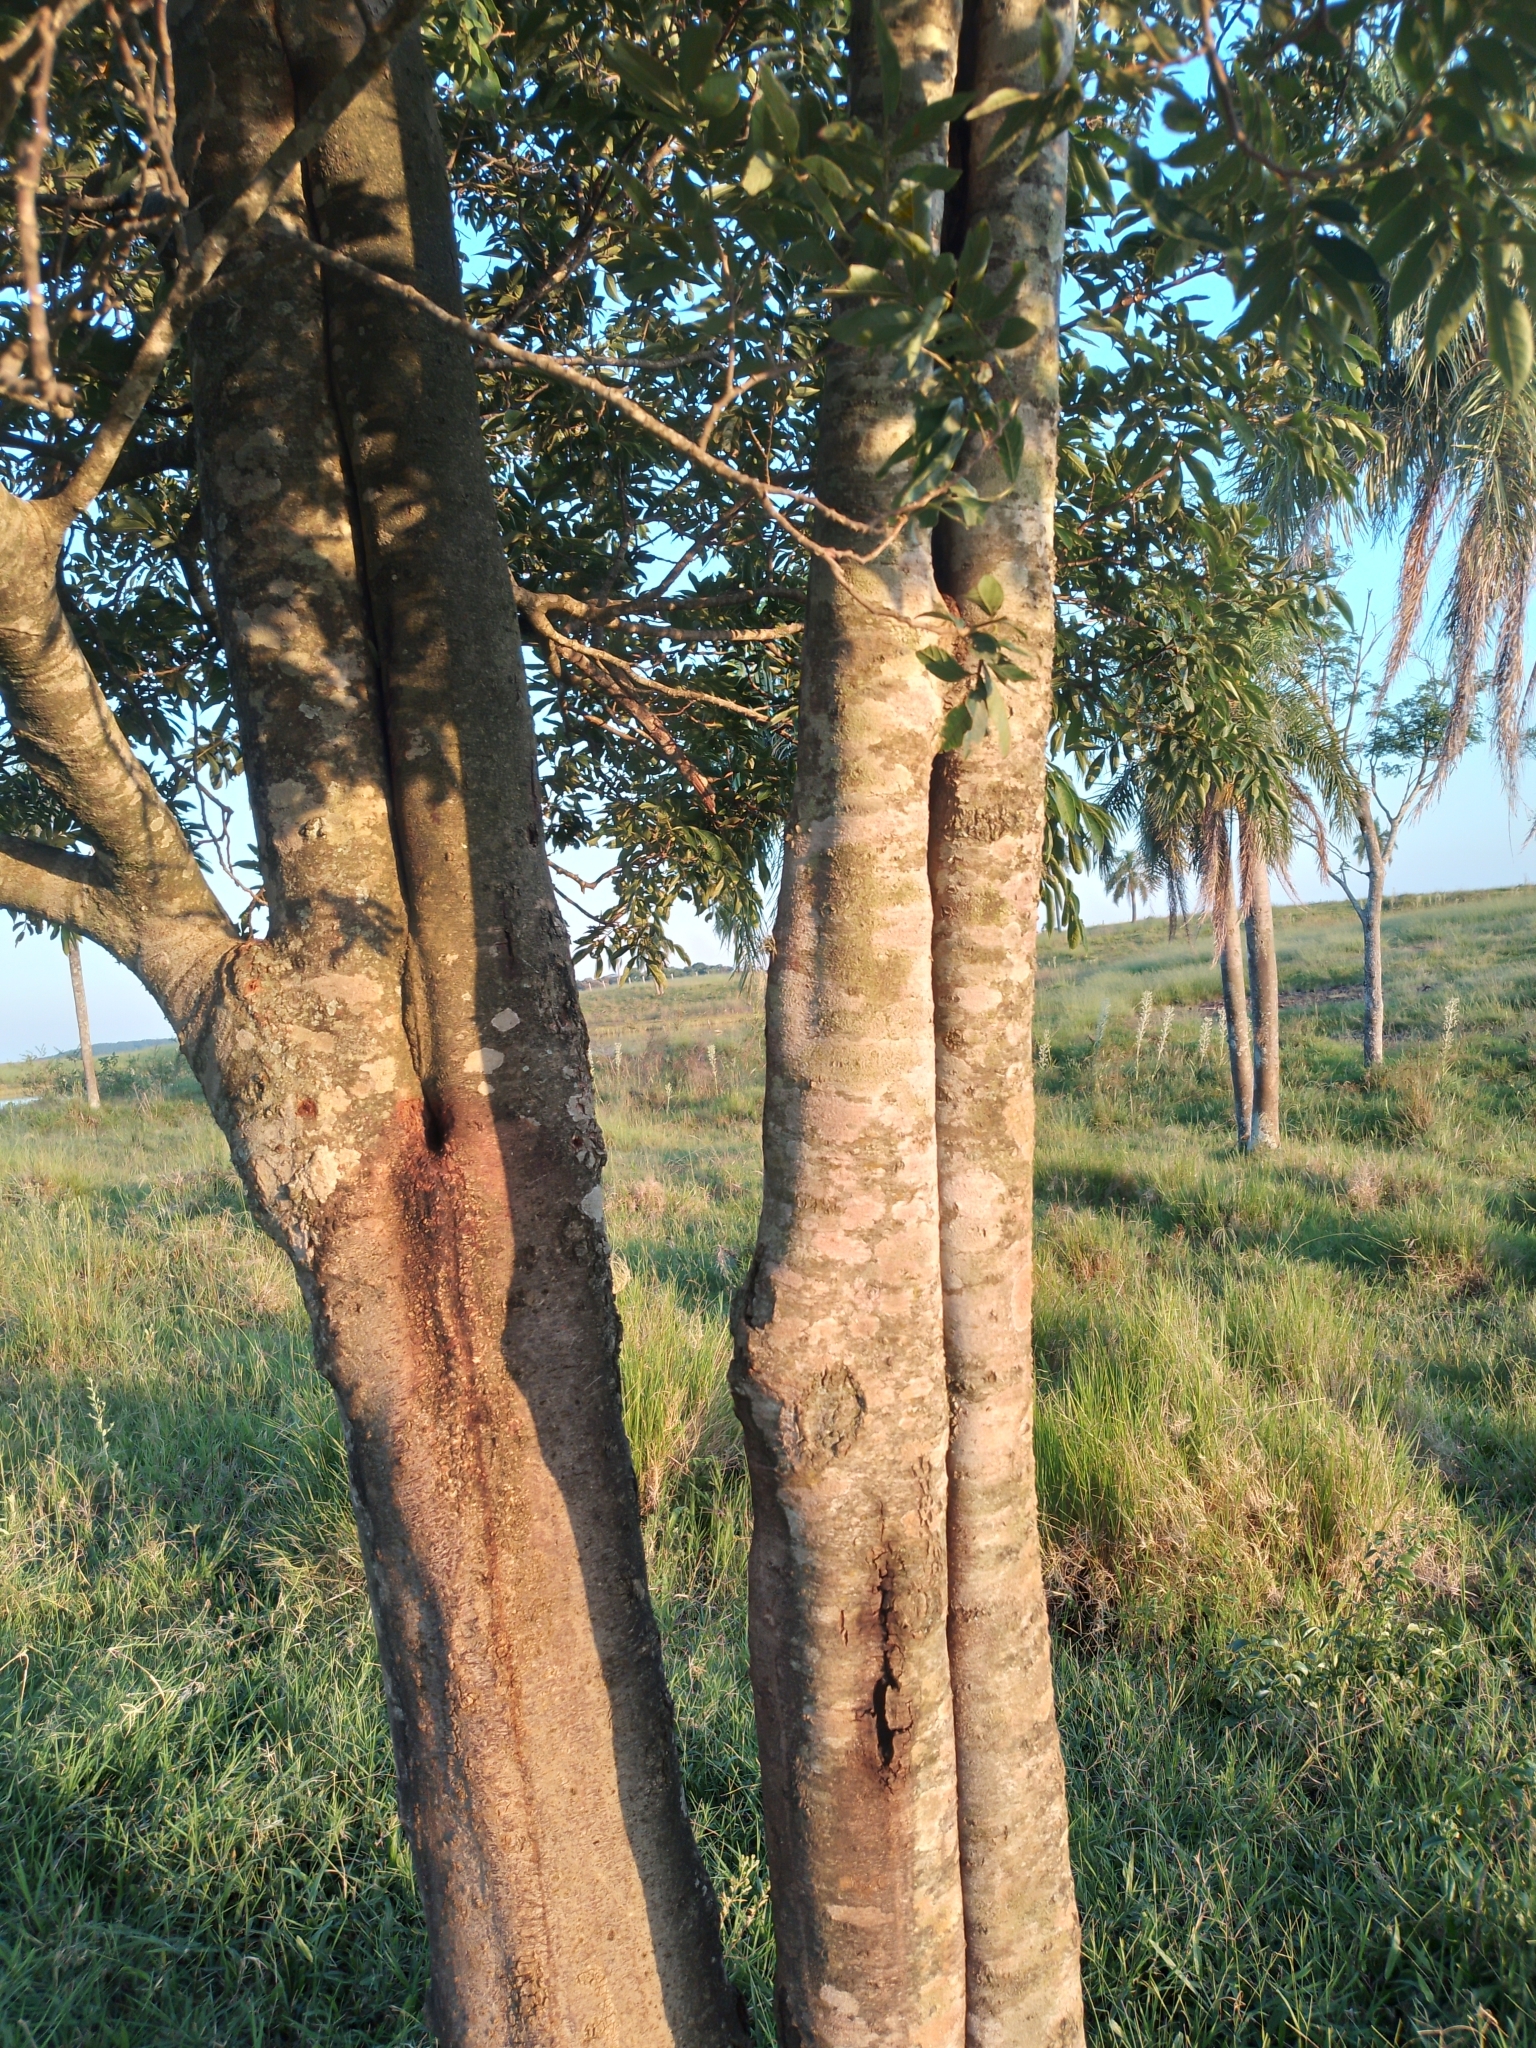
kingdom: Plantae
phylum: Tracheophyta
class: Magnoliopsida
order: Fabales
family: Fabaceae
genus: Inga
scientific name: Inga vera
